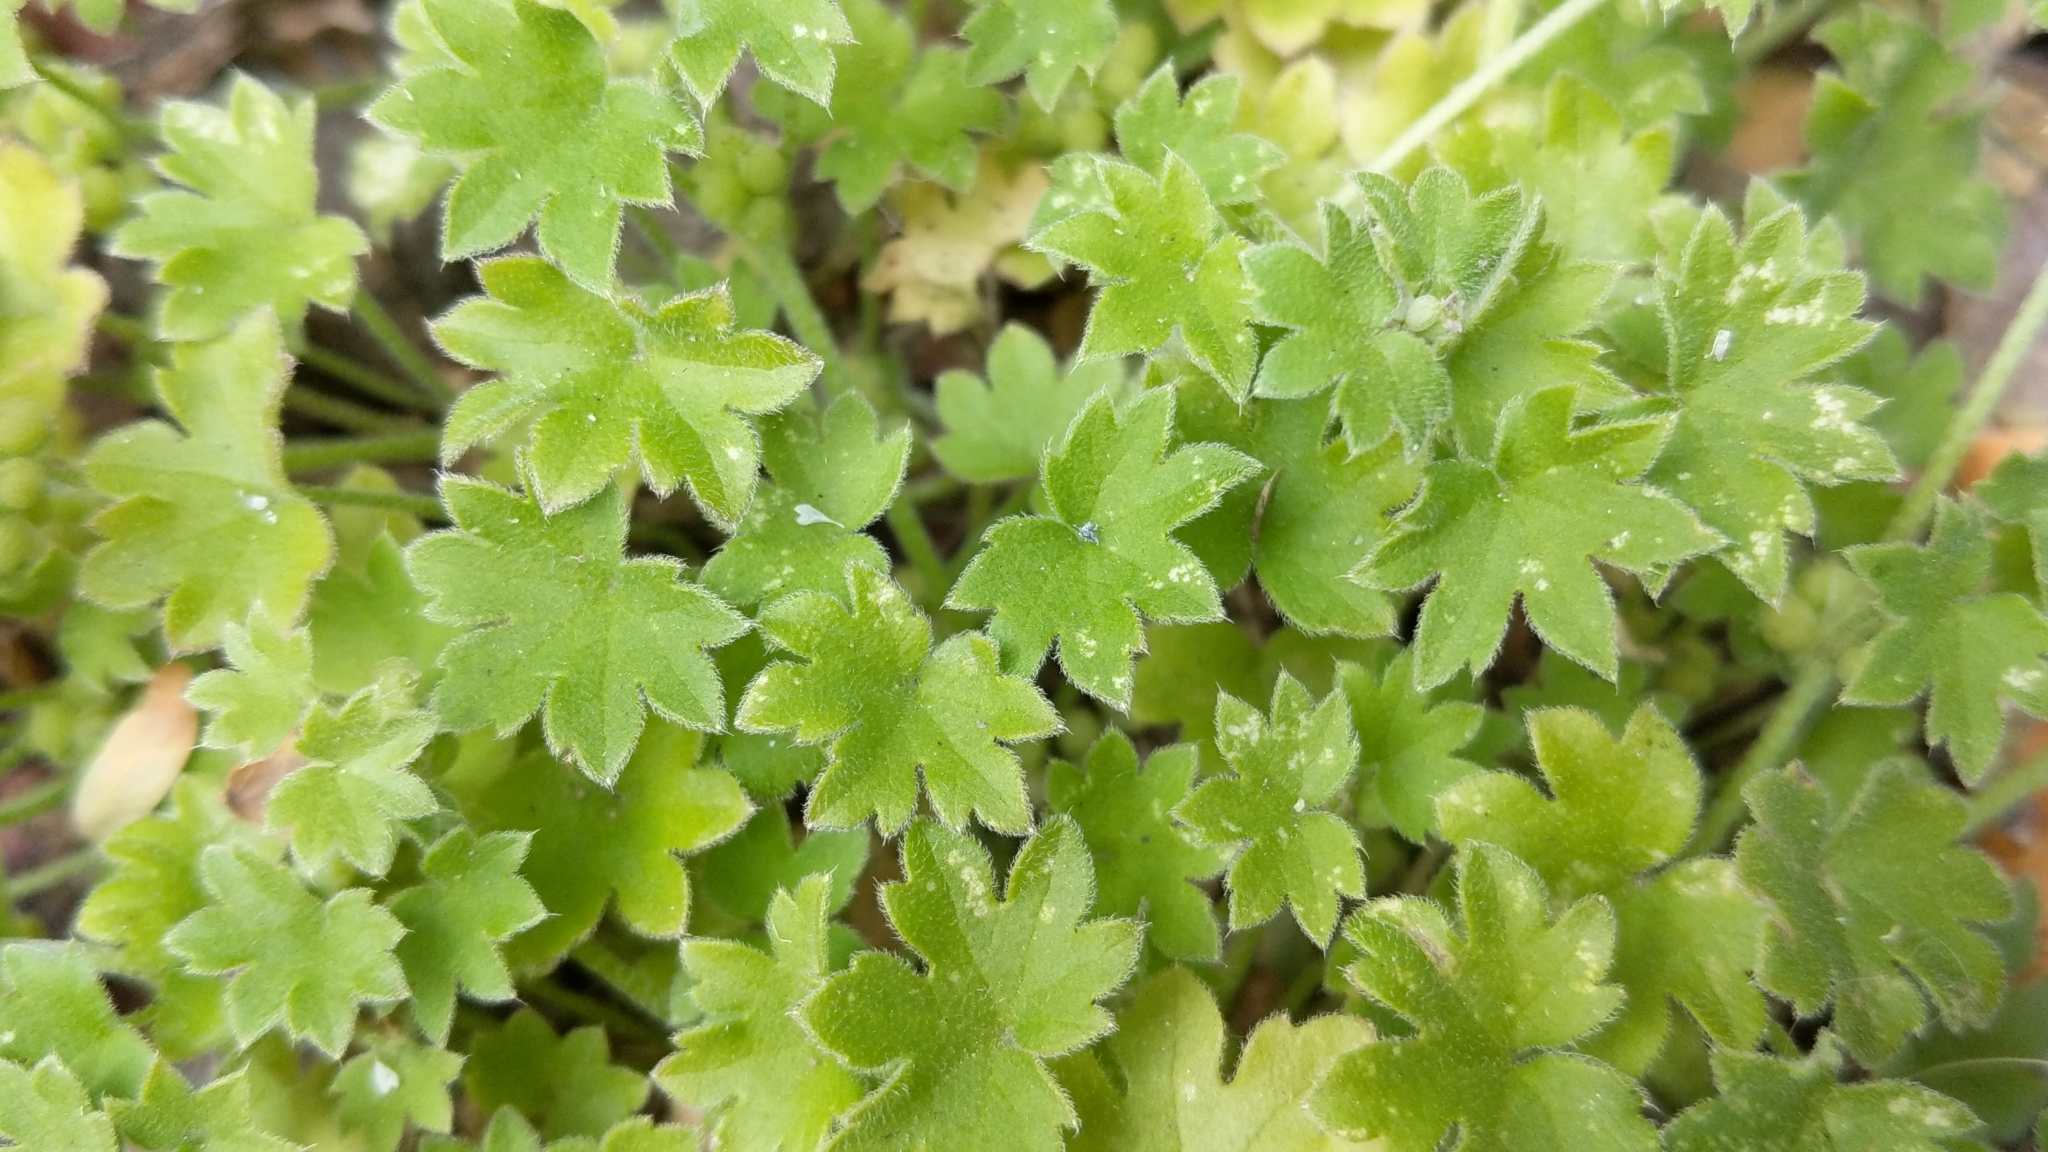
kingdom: Plantae
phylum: Tracheophyta
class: Magnoliopsida
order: Apiales
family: Apiaceae
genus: Bowlesia
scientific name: Bowlesia incana
